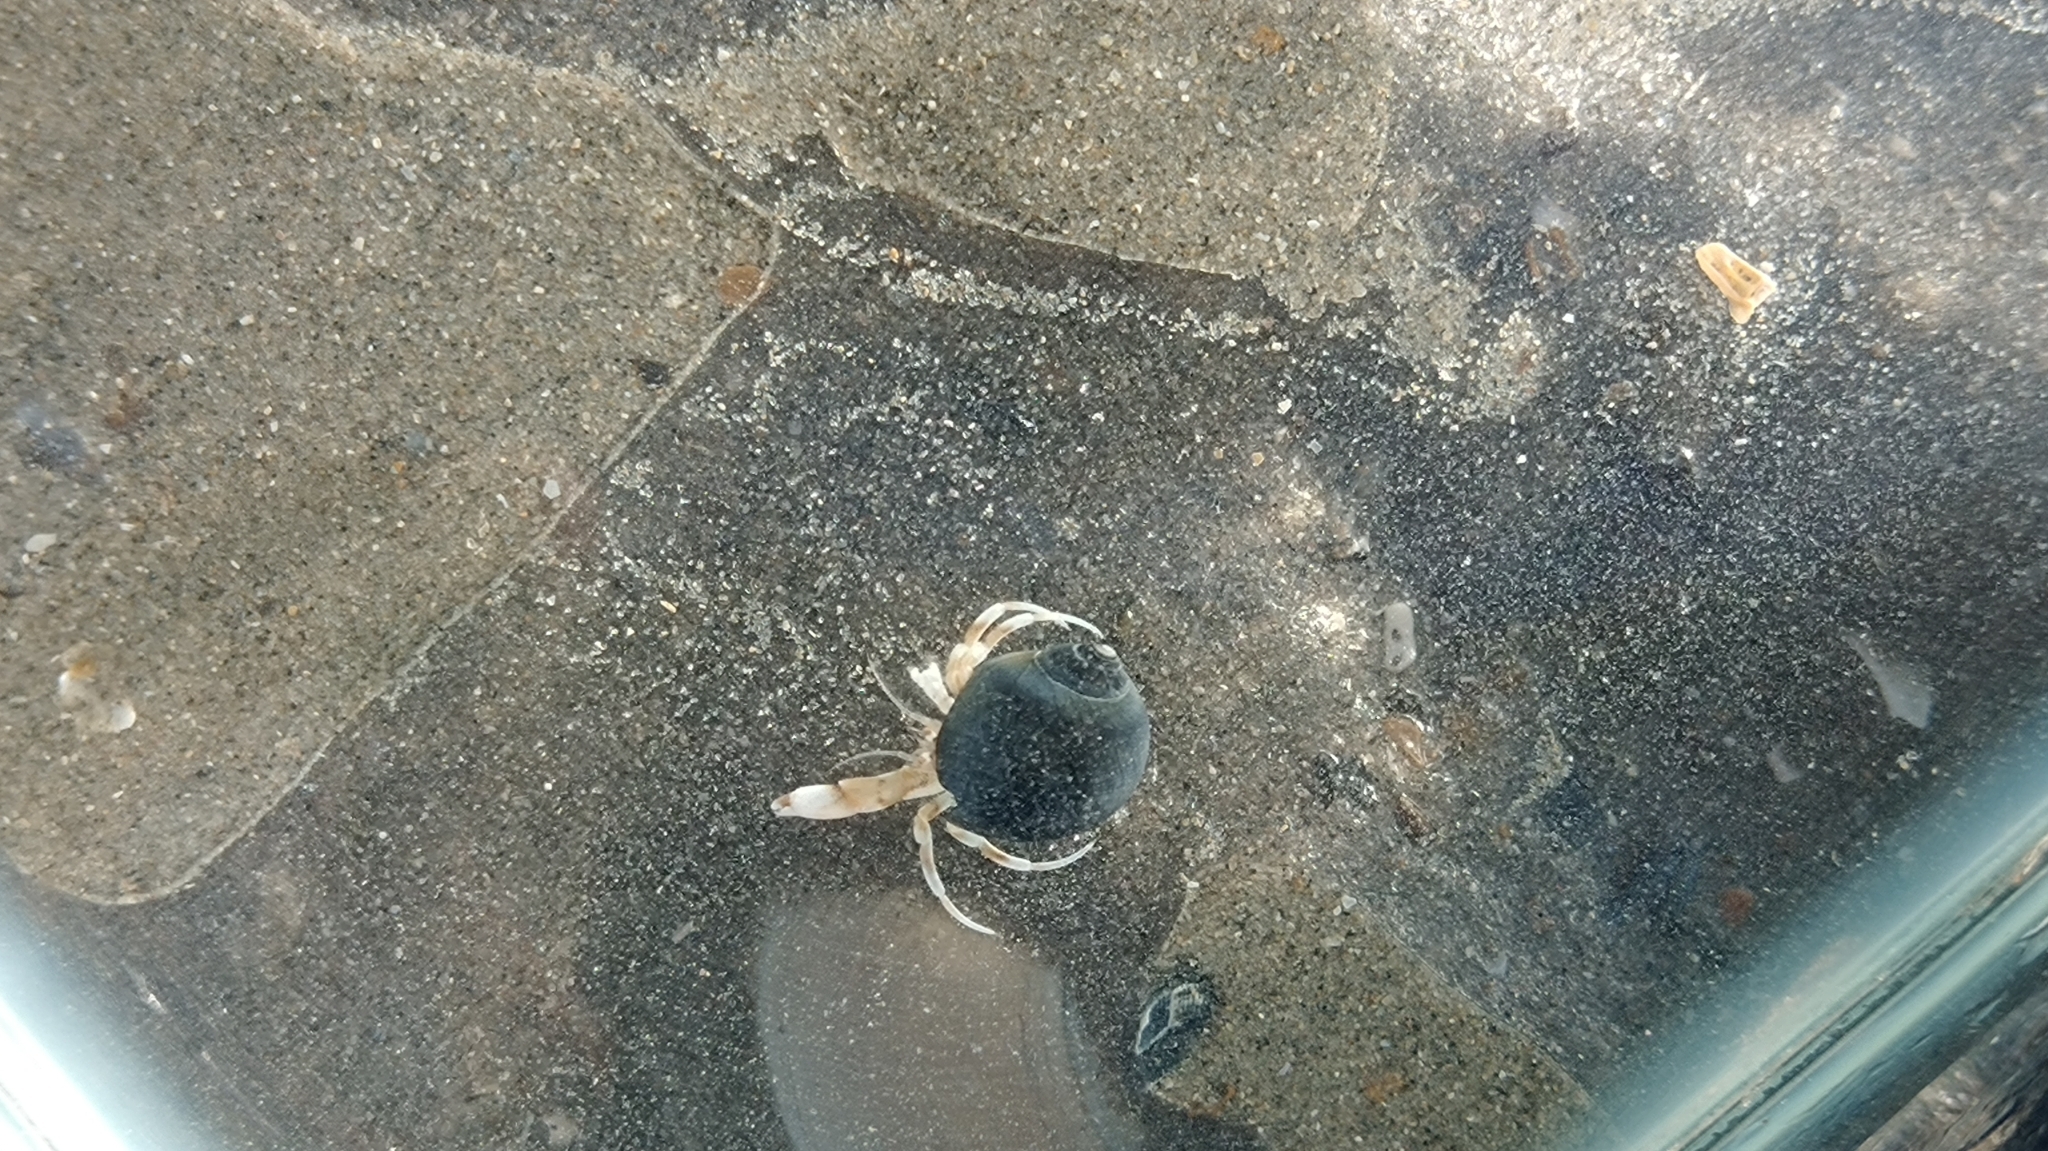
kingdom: Animalia
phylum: Arthropoda
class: Malacostraca
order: Decapoda
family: Diogenidae
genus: Diogenes
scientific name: Diogenes pugilator
